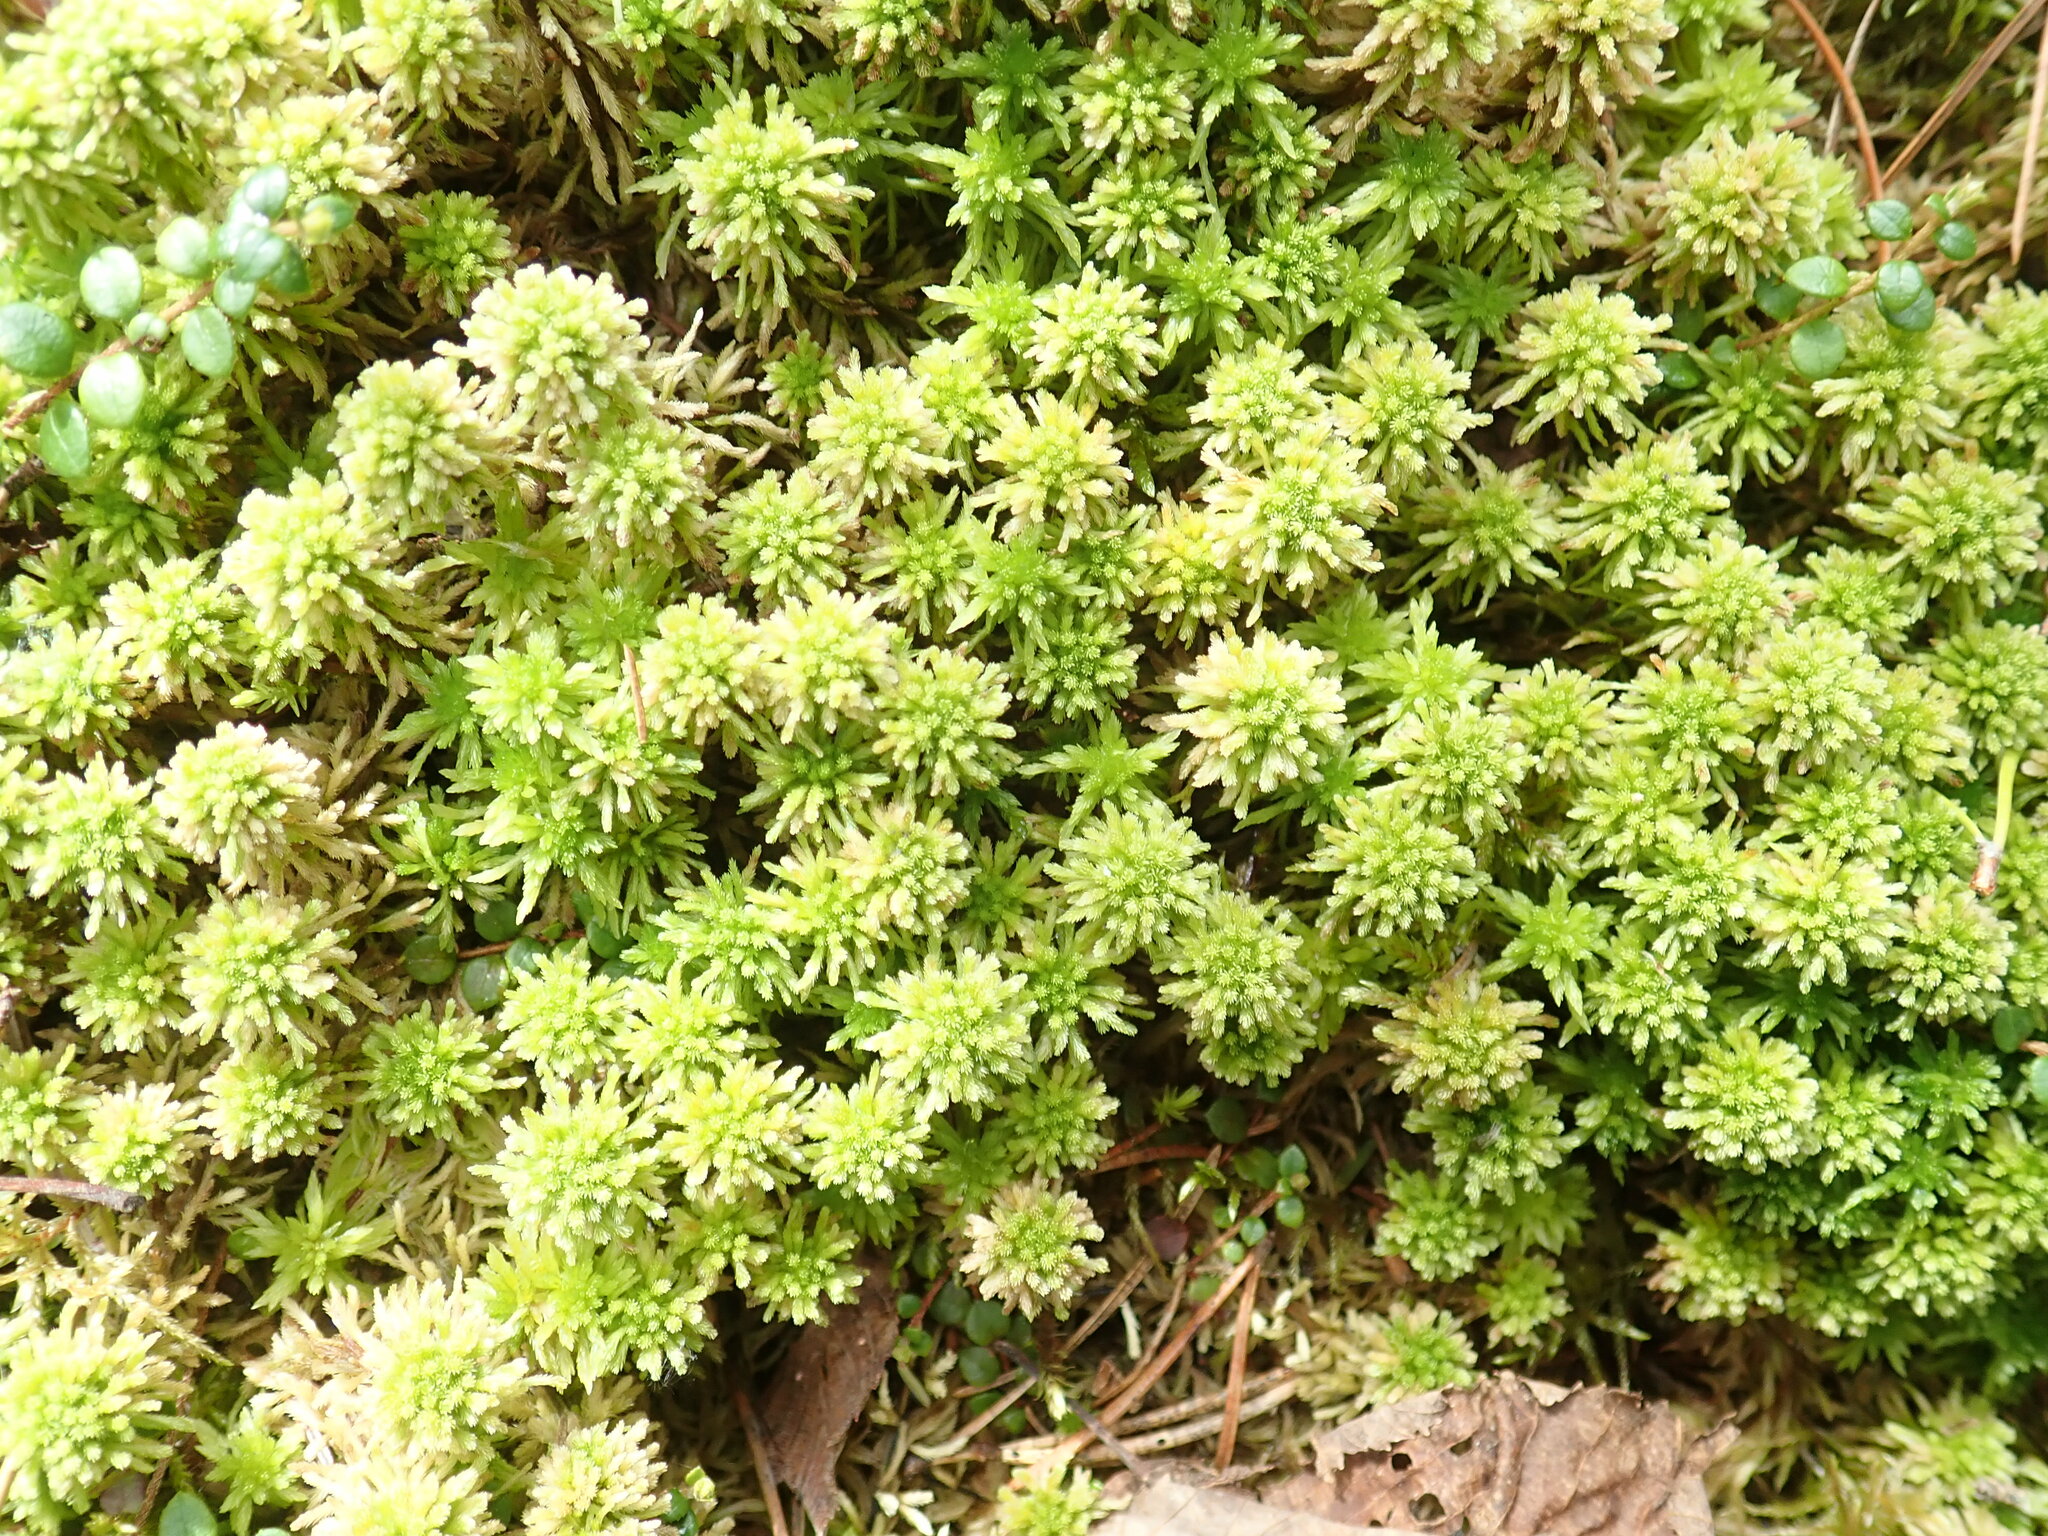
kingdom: Plantae
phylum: Bryophyta
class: Sphagnopsida
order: Sphagnales
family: Sphagnaceae
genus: Sphagnum
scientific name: Sphagnum wulfianum
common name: Wulf's peat moss
